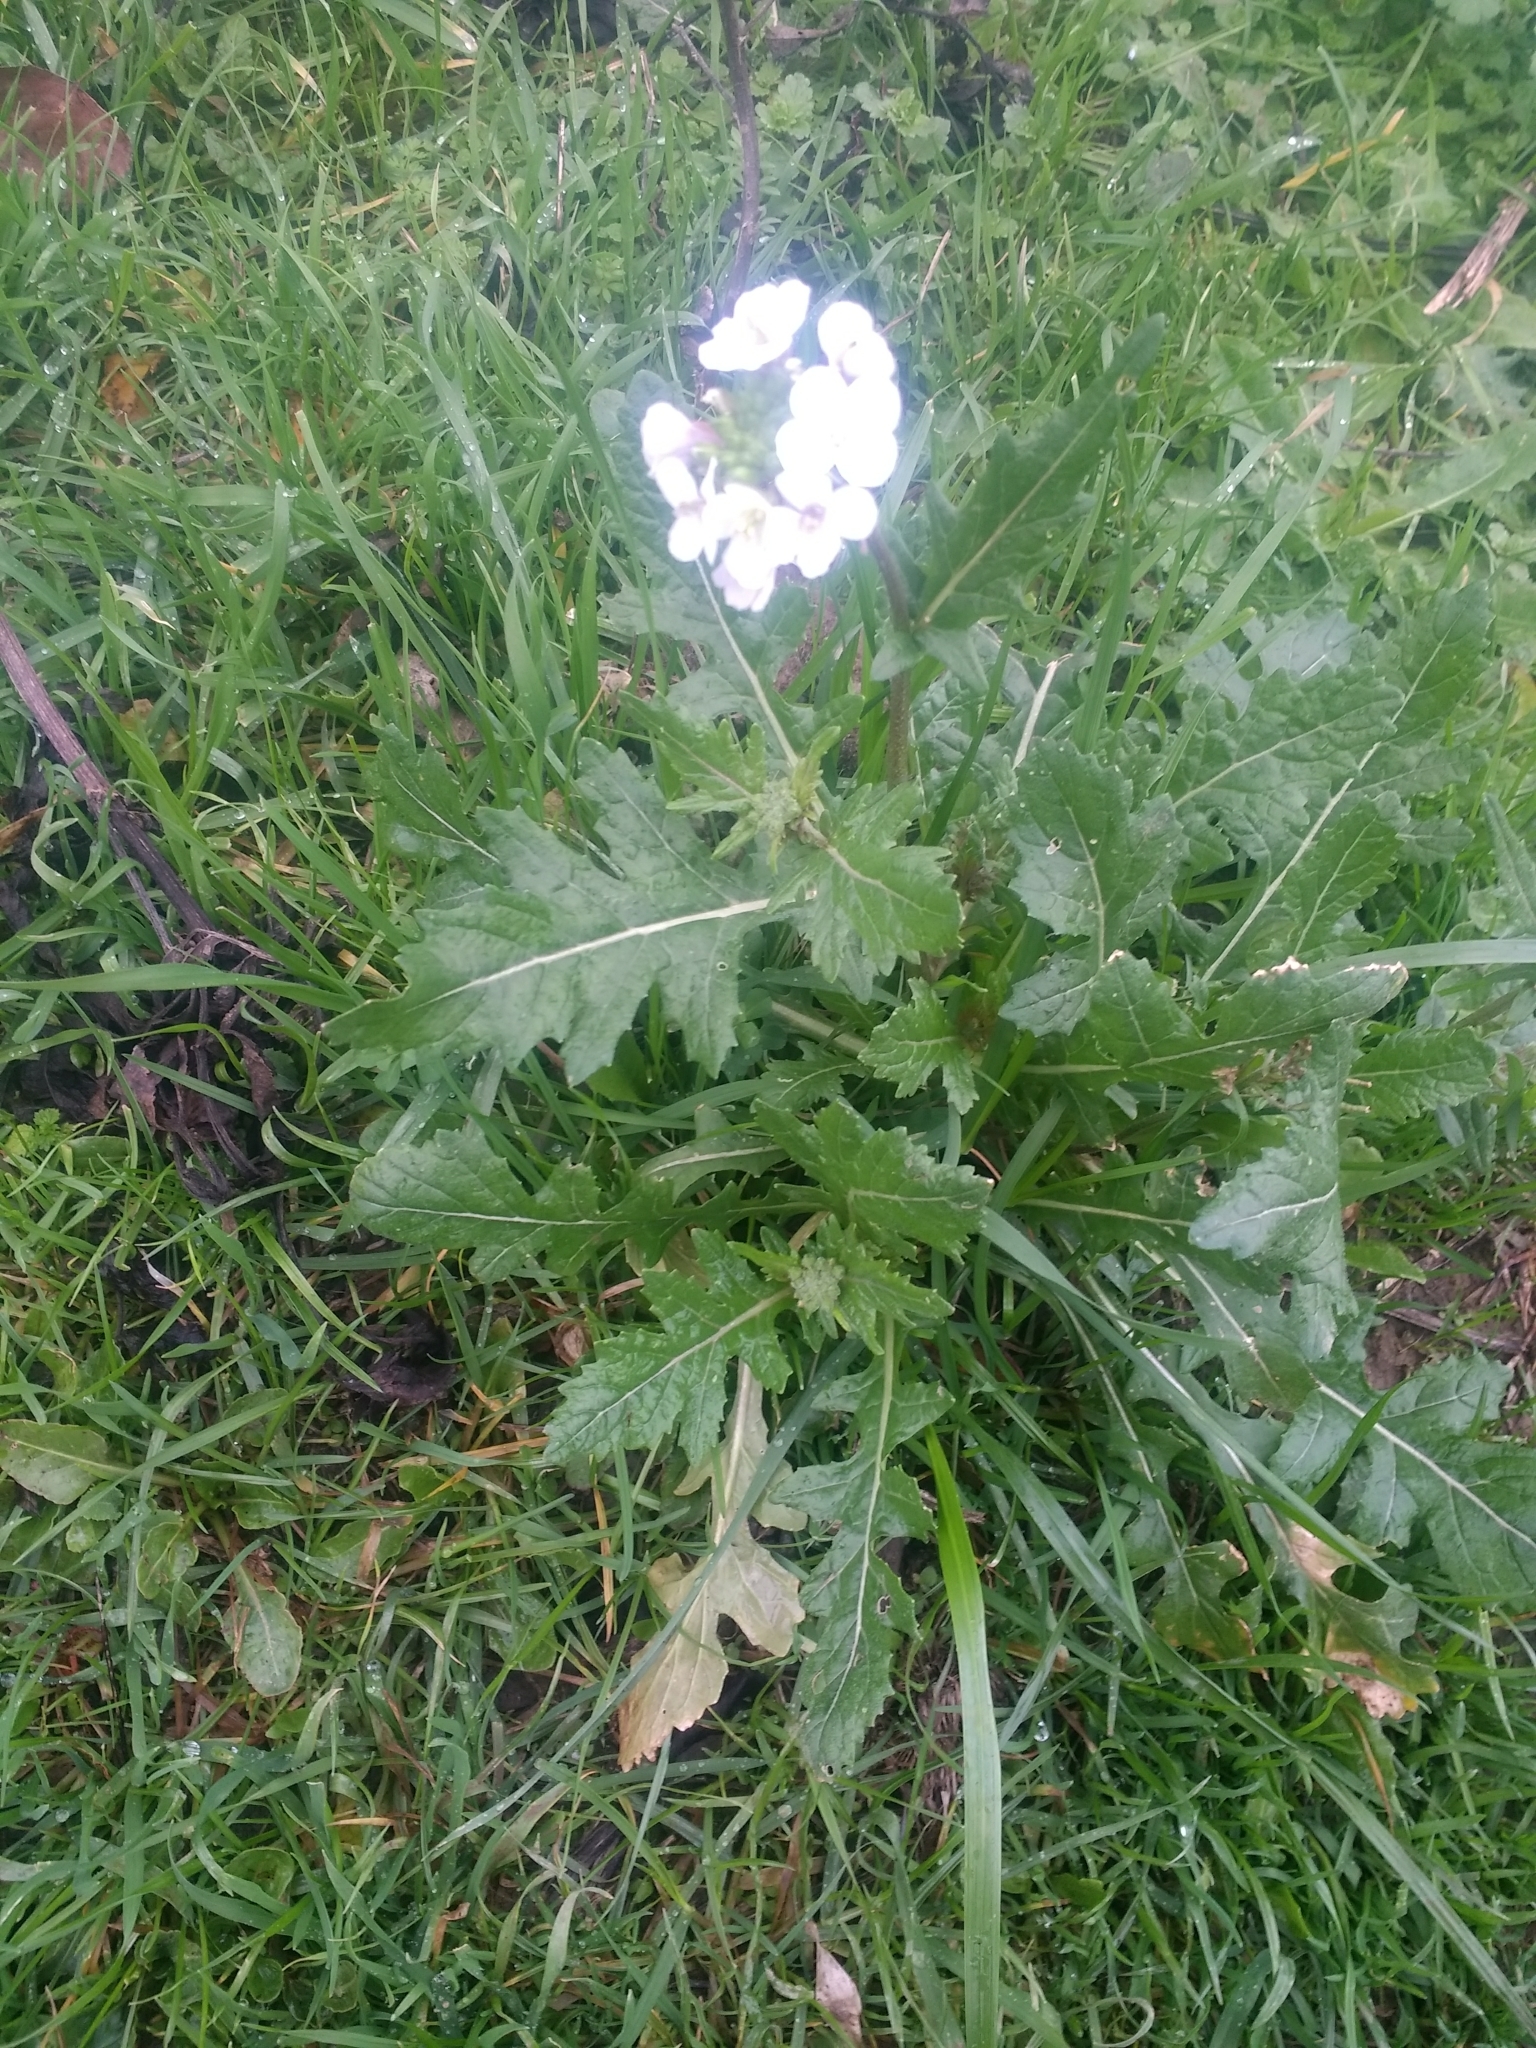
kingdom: Plantae
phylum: Tracheophyta
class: Magnoliopsida
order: Brassicales
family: Brassicaceae
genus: Diplotaxis
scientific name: Diplotaxis erucoides
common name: White rocket
